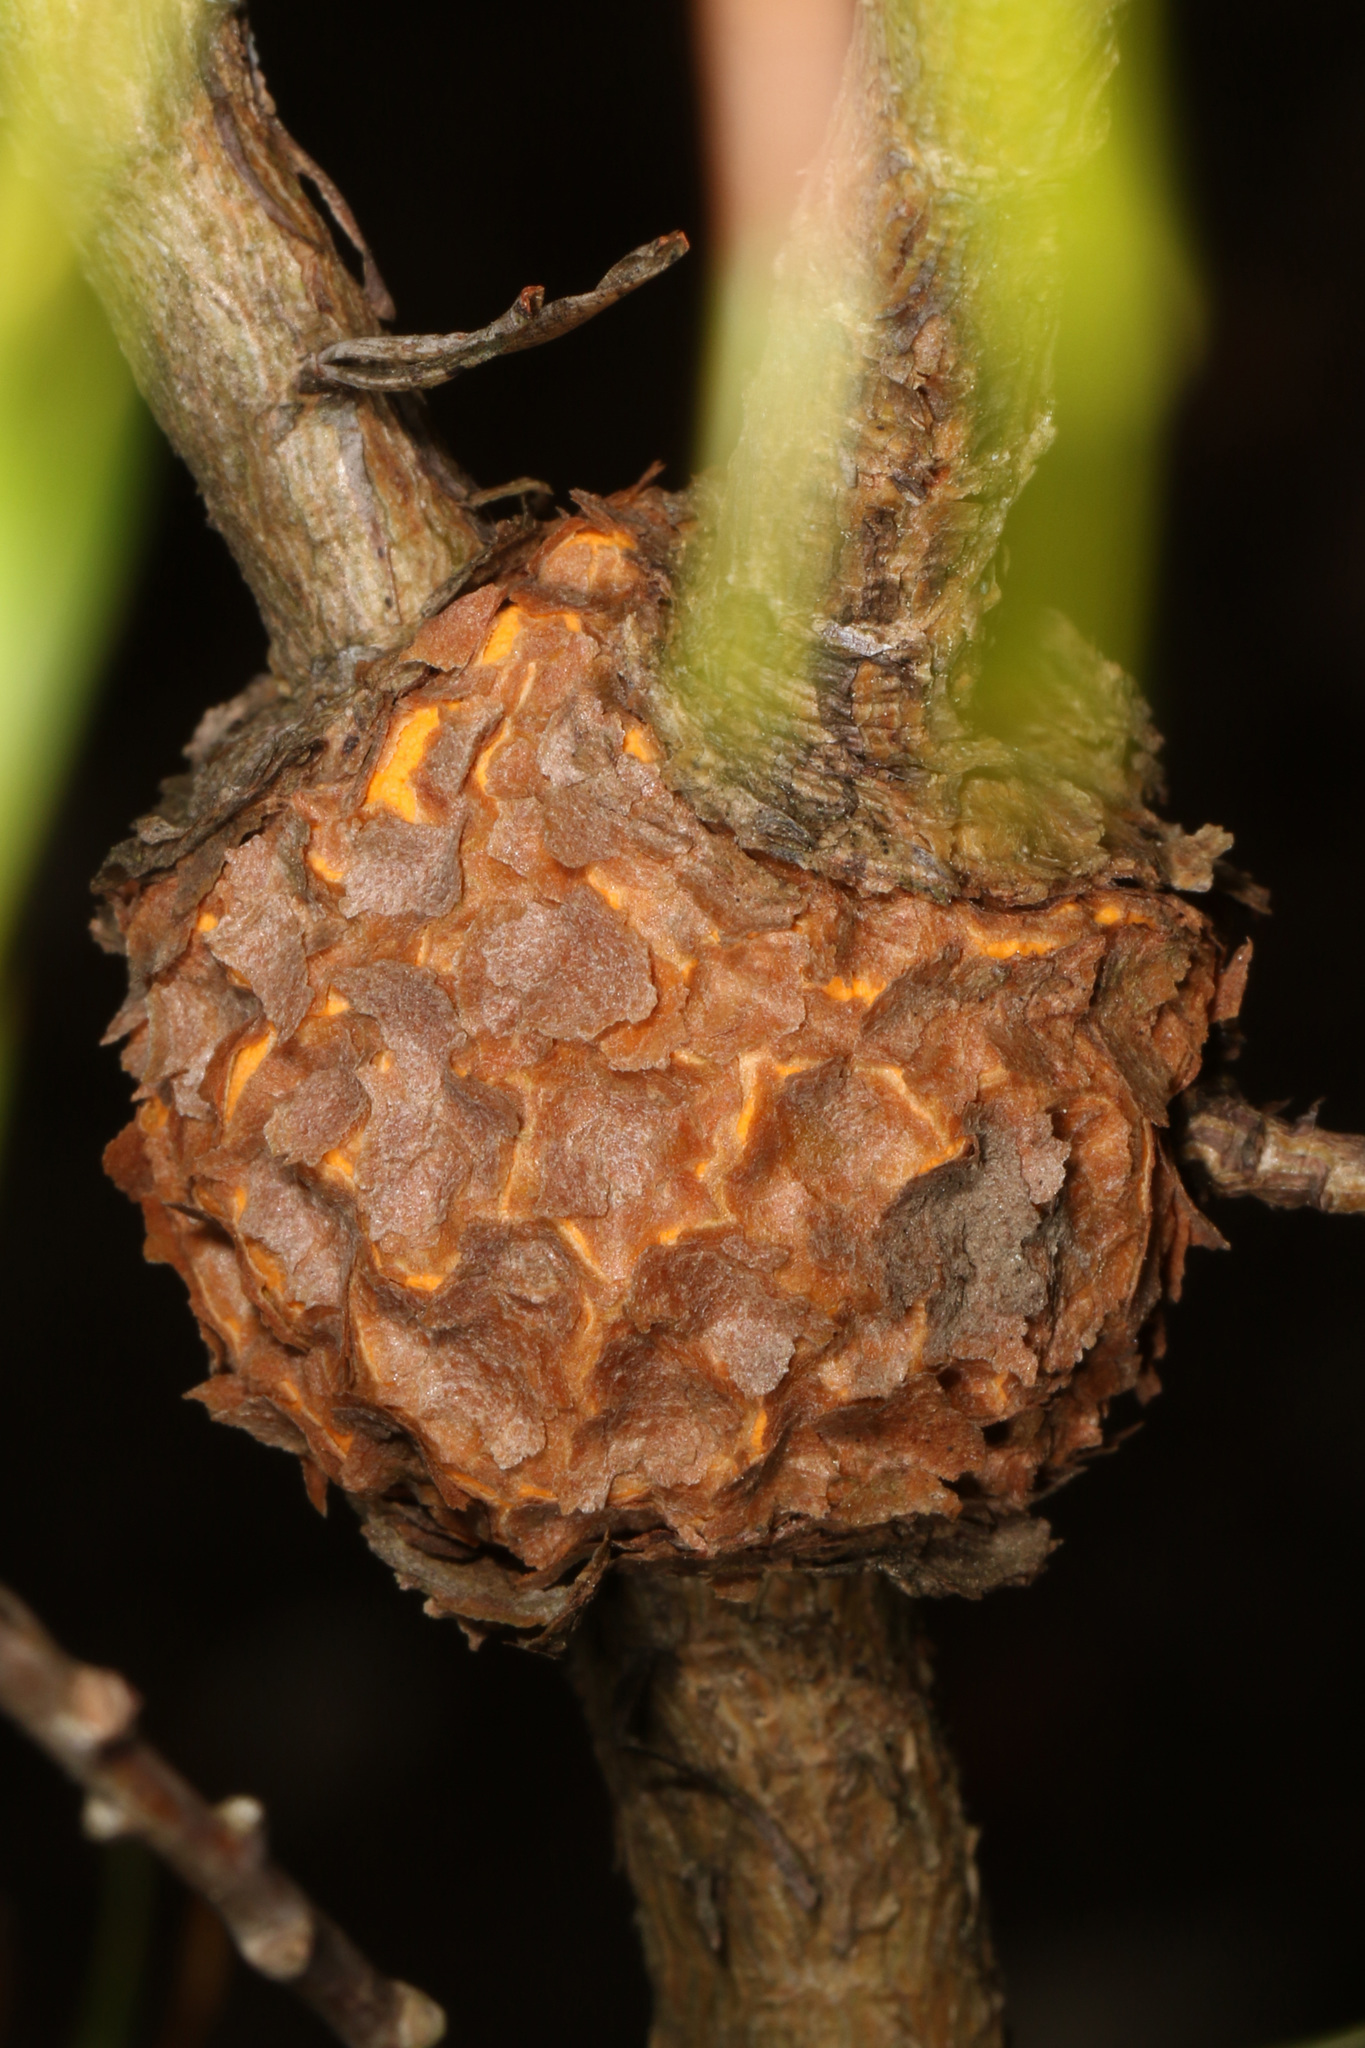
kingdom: Fungi
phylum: Basidiomycota
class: Pucciniomycetes
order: Pucciniales
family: Cronartiaceae
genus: Cronartium
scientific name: Cronartium quercuum
